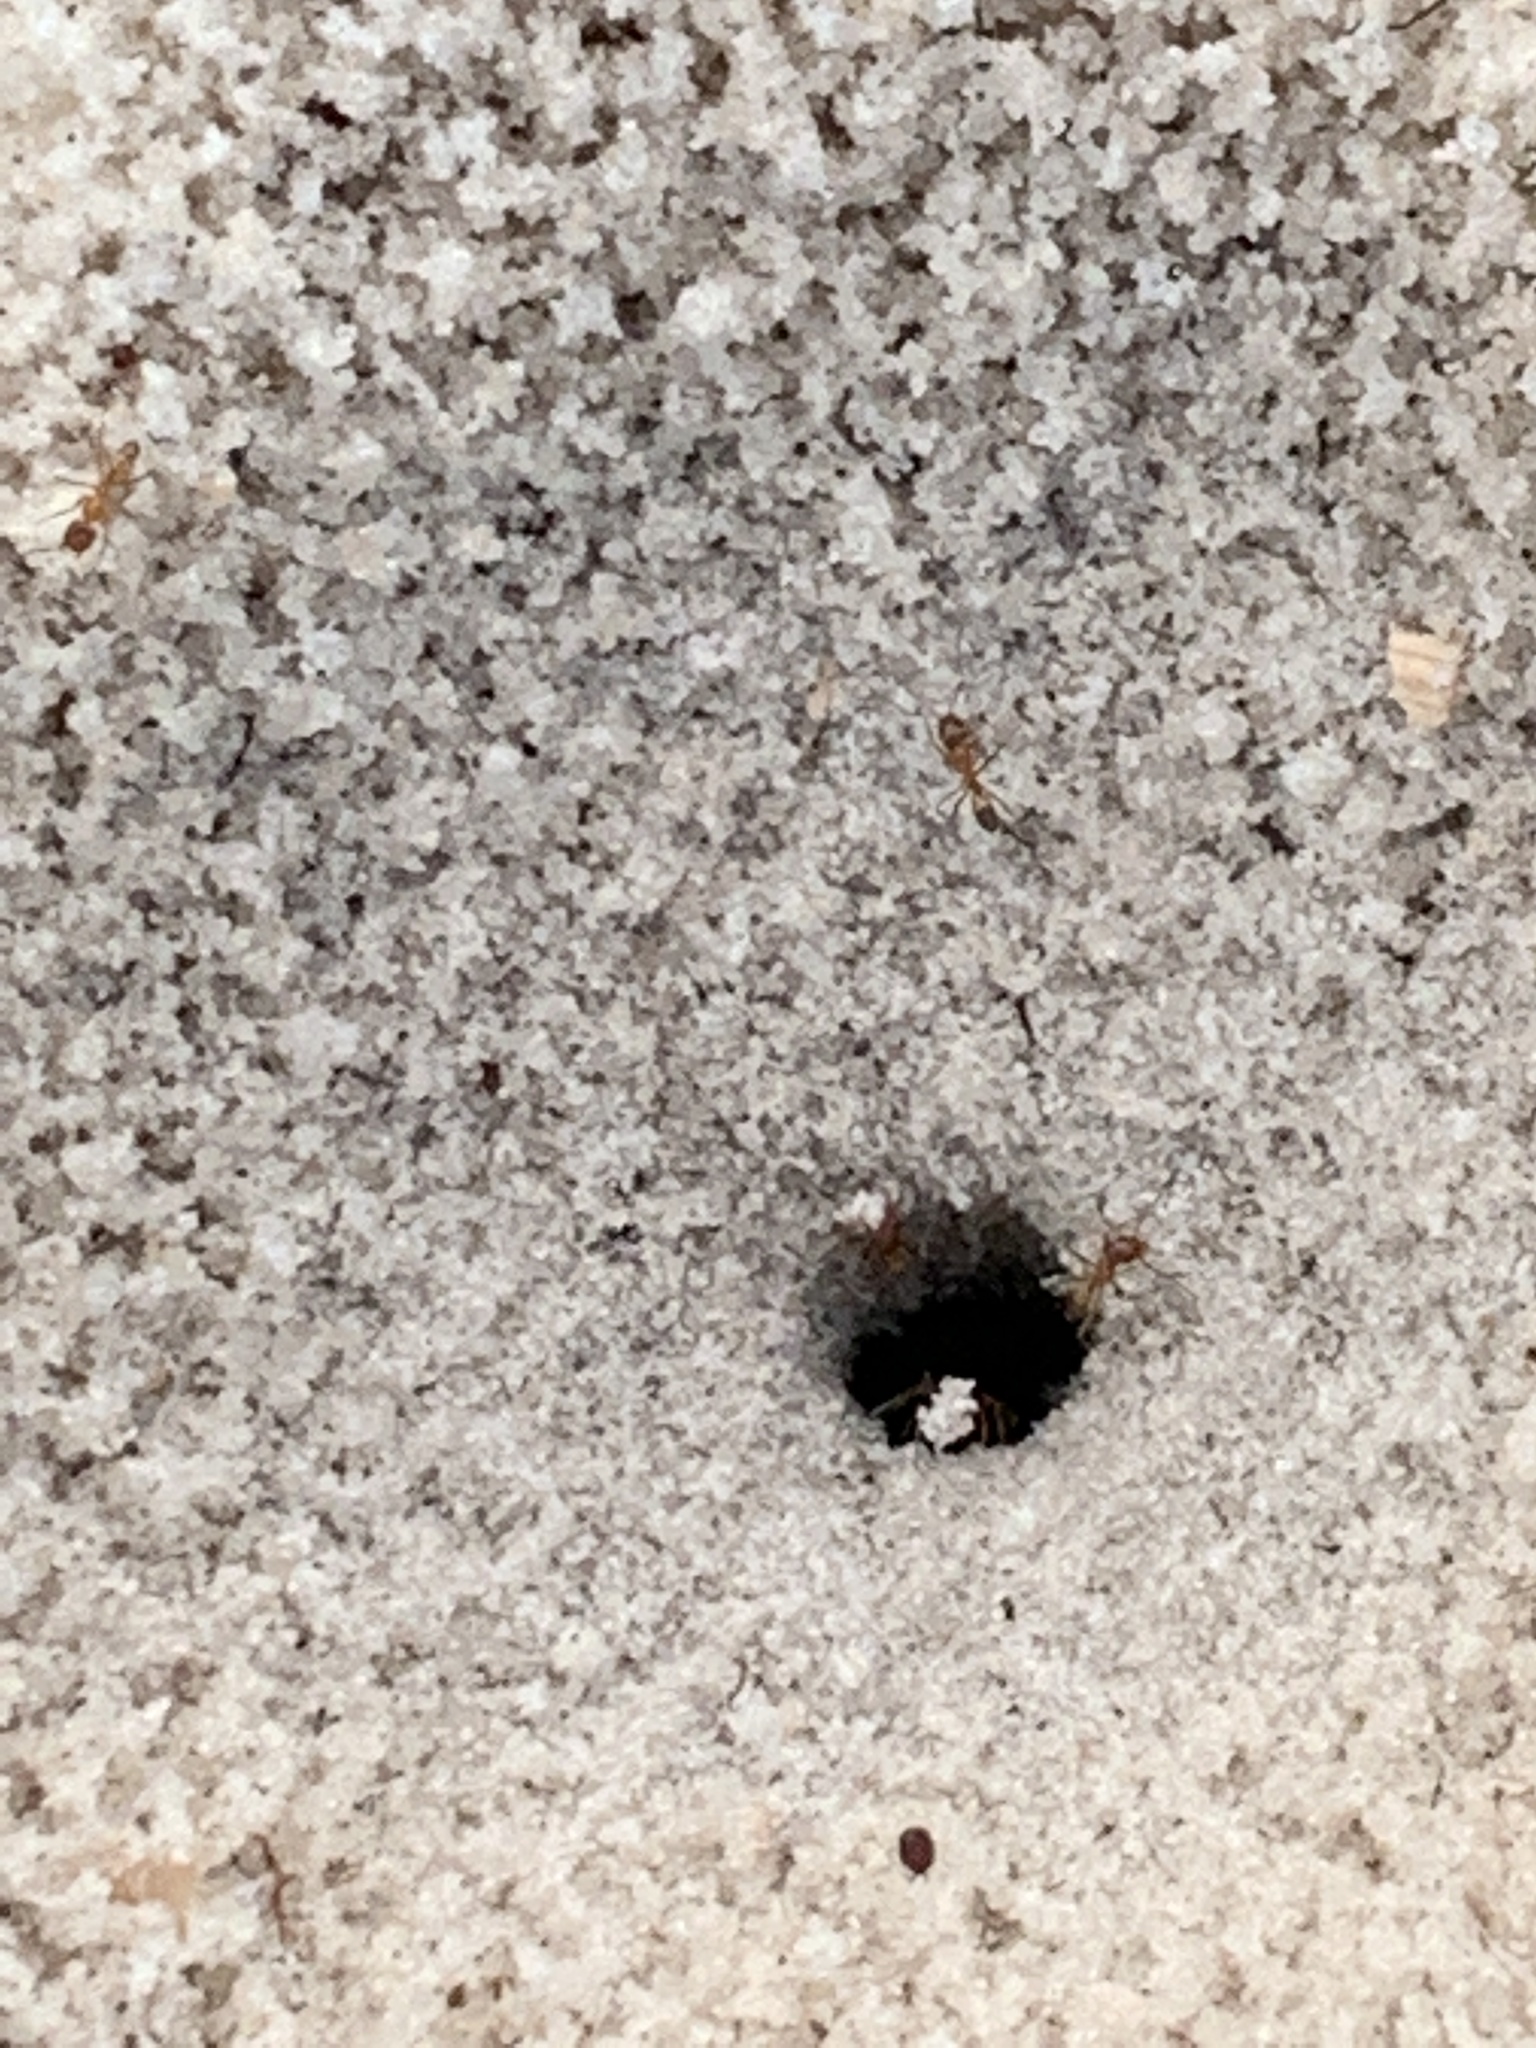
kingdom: Animalia
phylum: Arthropoda
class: Insecta
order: Hymenoptera
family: Formicidae
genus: Dorymyrmex
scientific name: Dorymyrmex bureni
